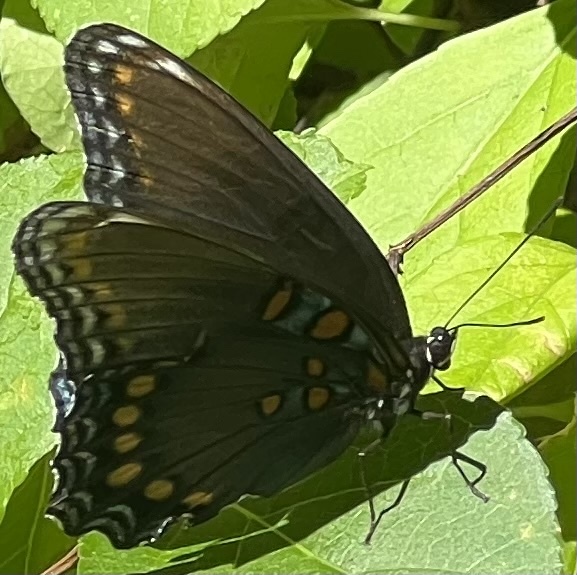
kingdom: Animalia
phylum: Arthropoda
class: Insecta
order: Lepidoptera
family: Nymphalidae
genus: Limenitis
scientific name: Limenitis astyanax
